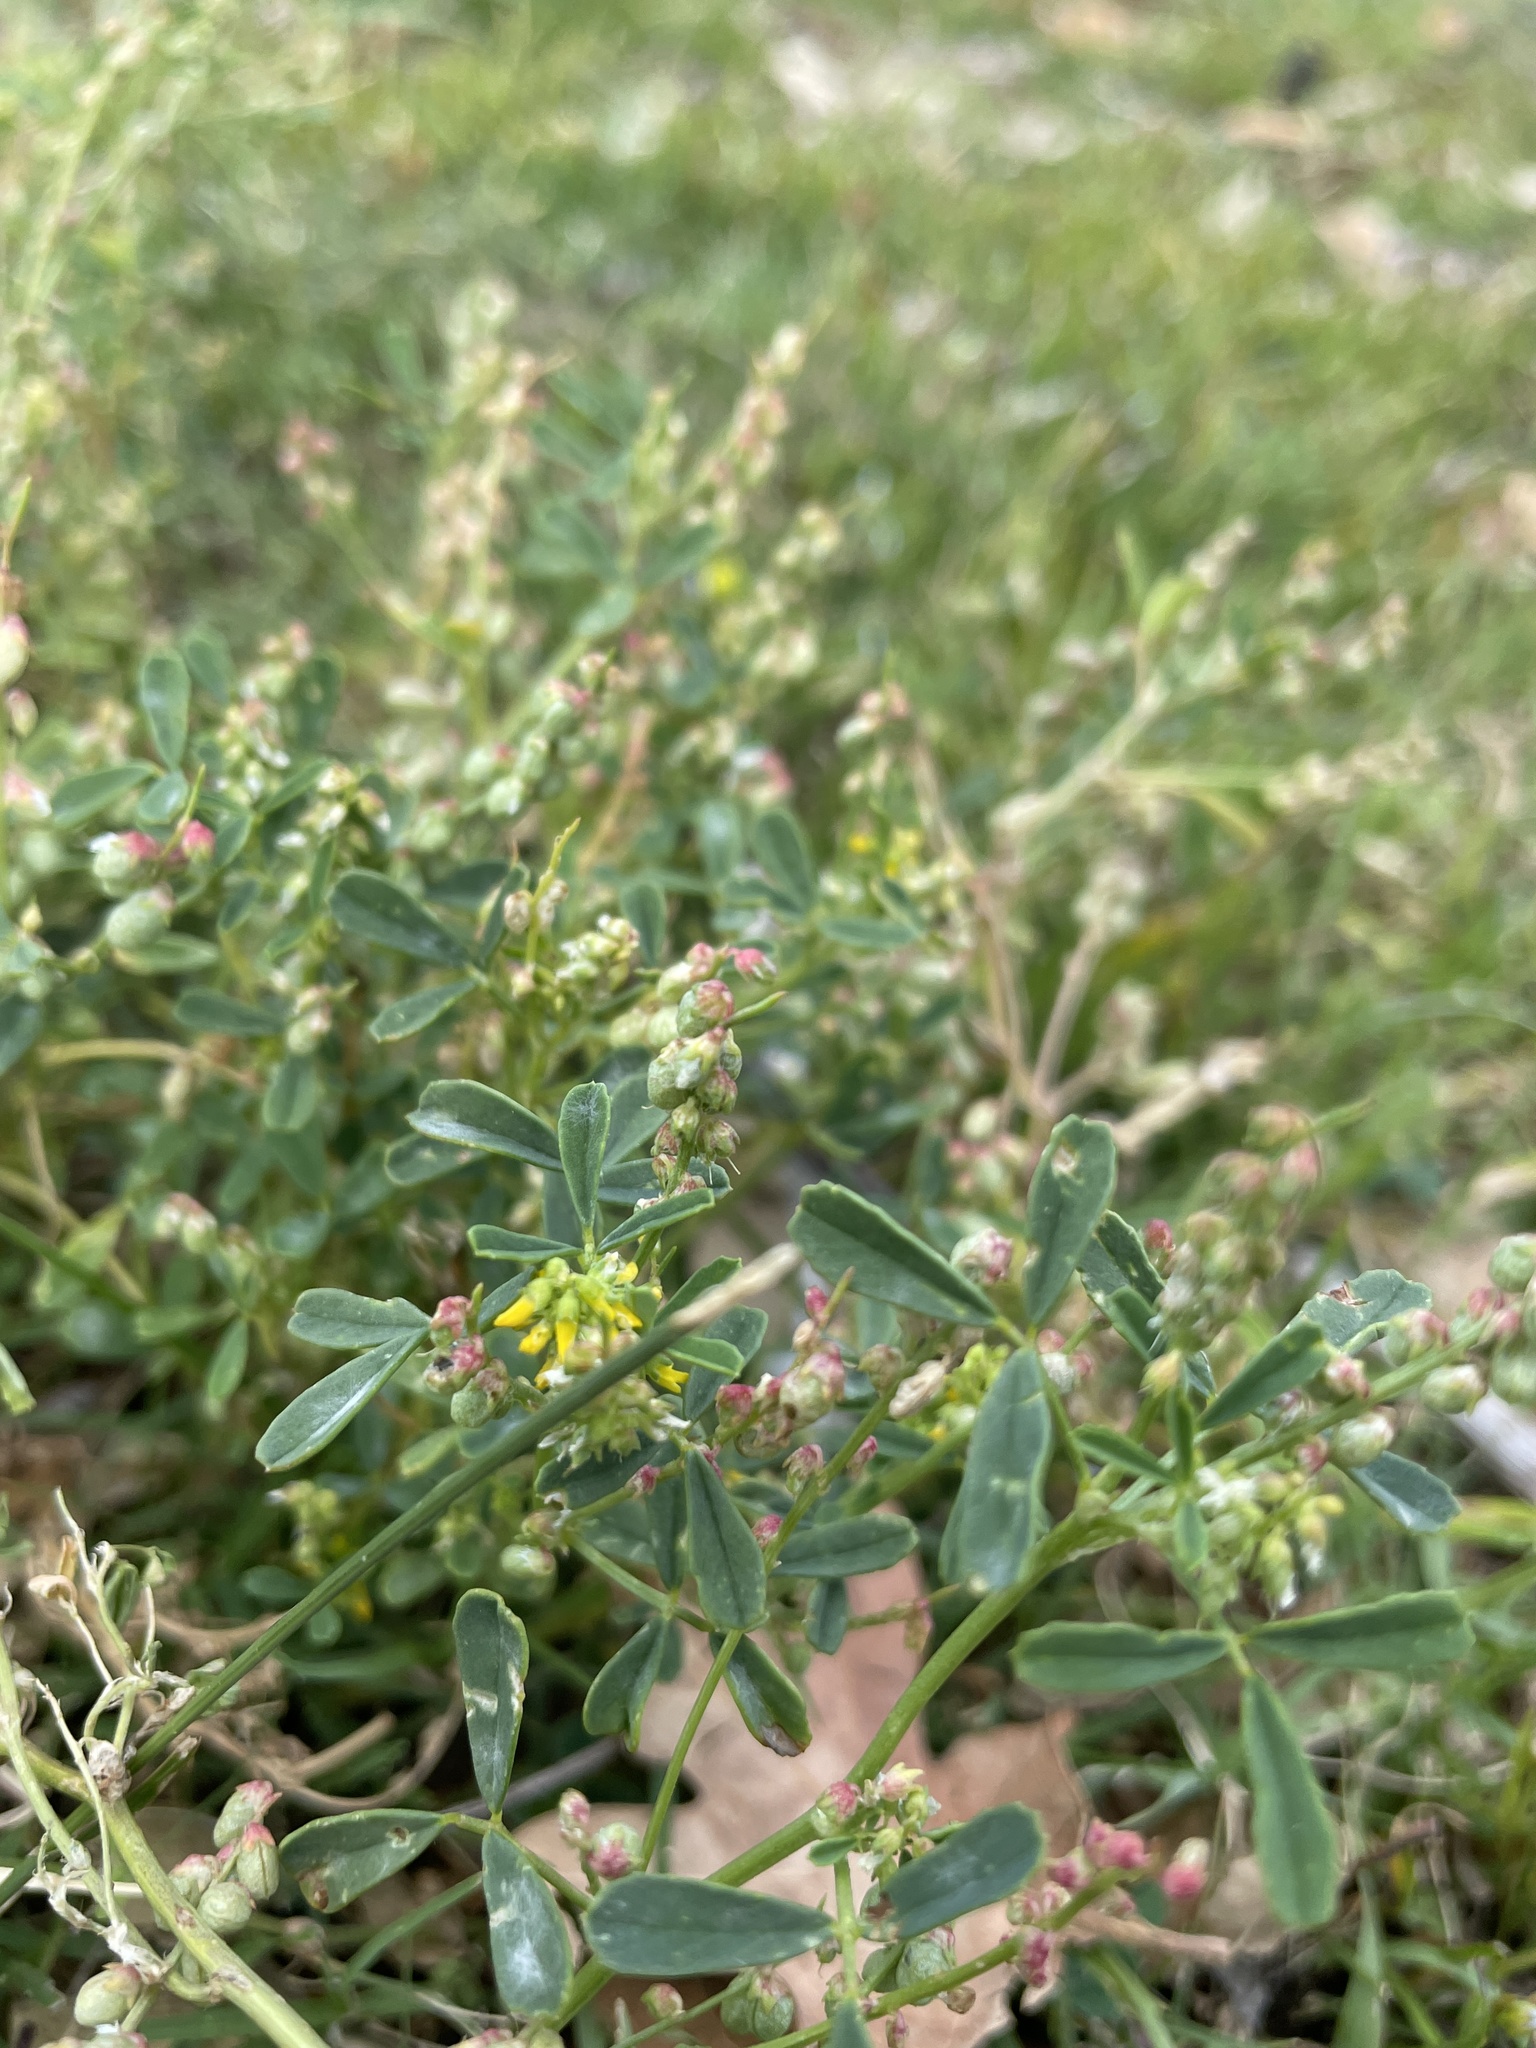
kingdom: Plantae
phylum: Tracheophyta
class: Magnoliopsida
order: Fabales
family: Fabaceae
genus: Melilotus
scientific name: Melilotus indicus
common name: Small melilot
